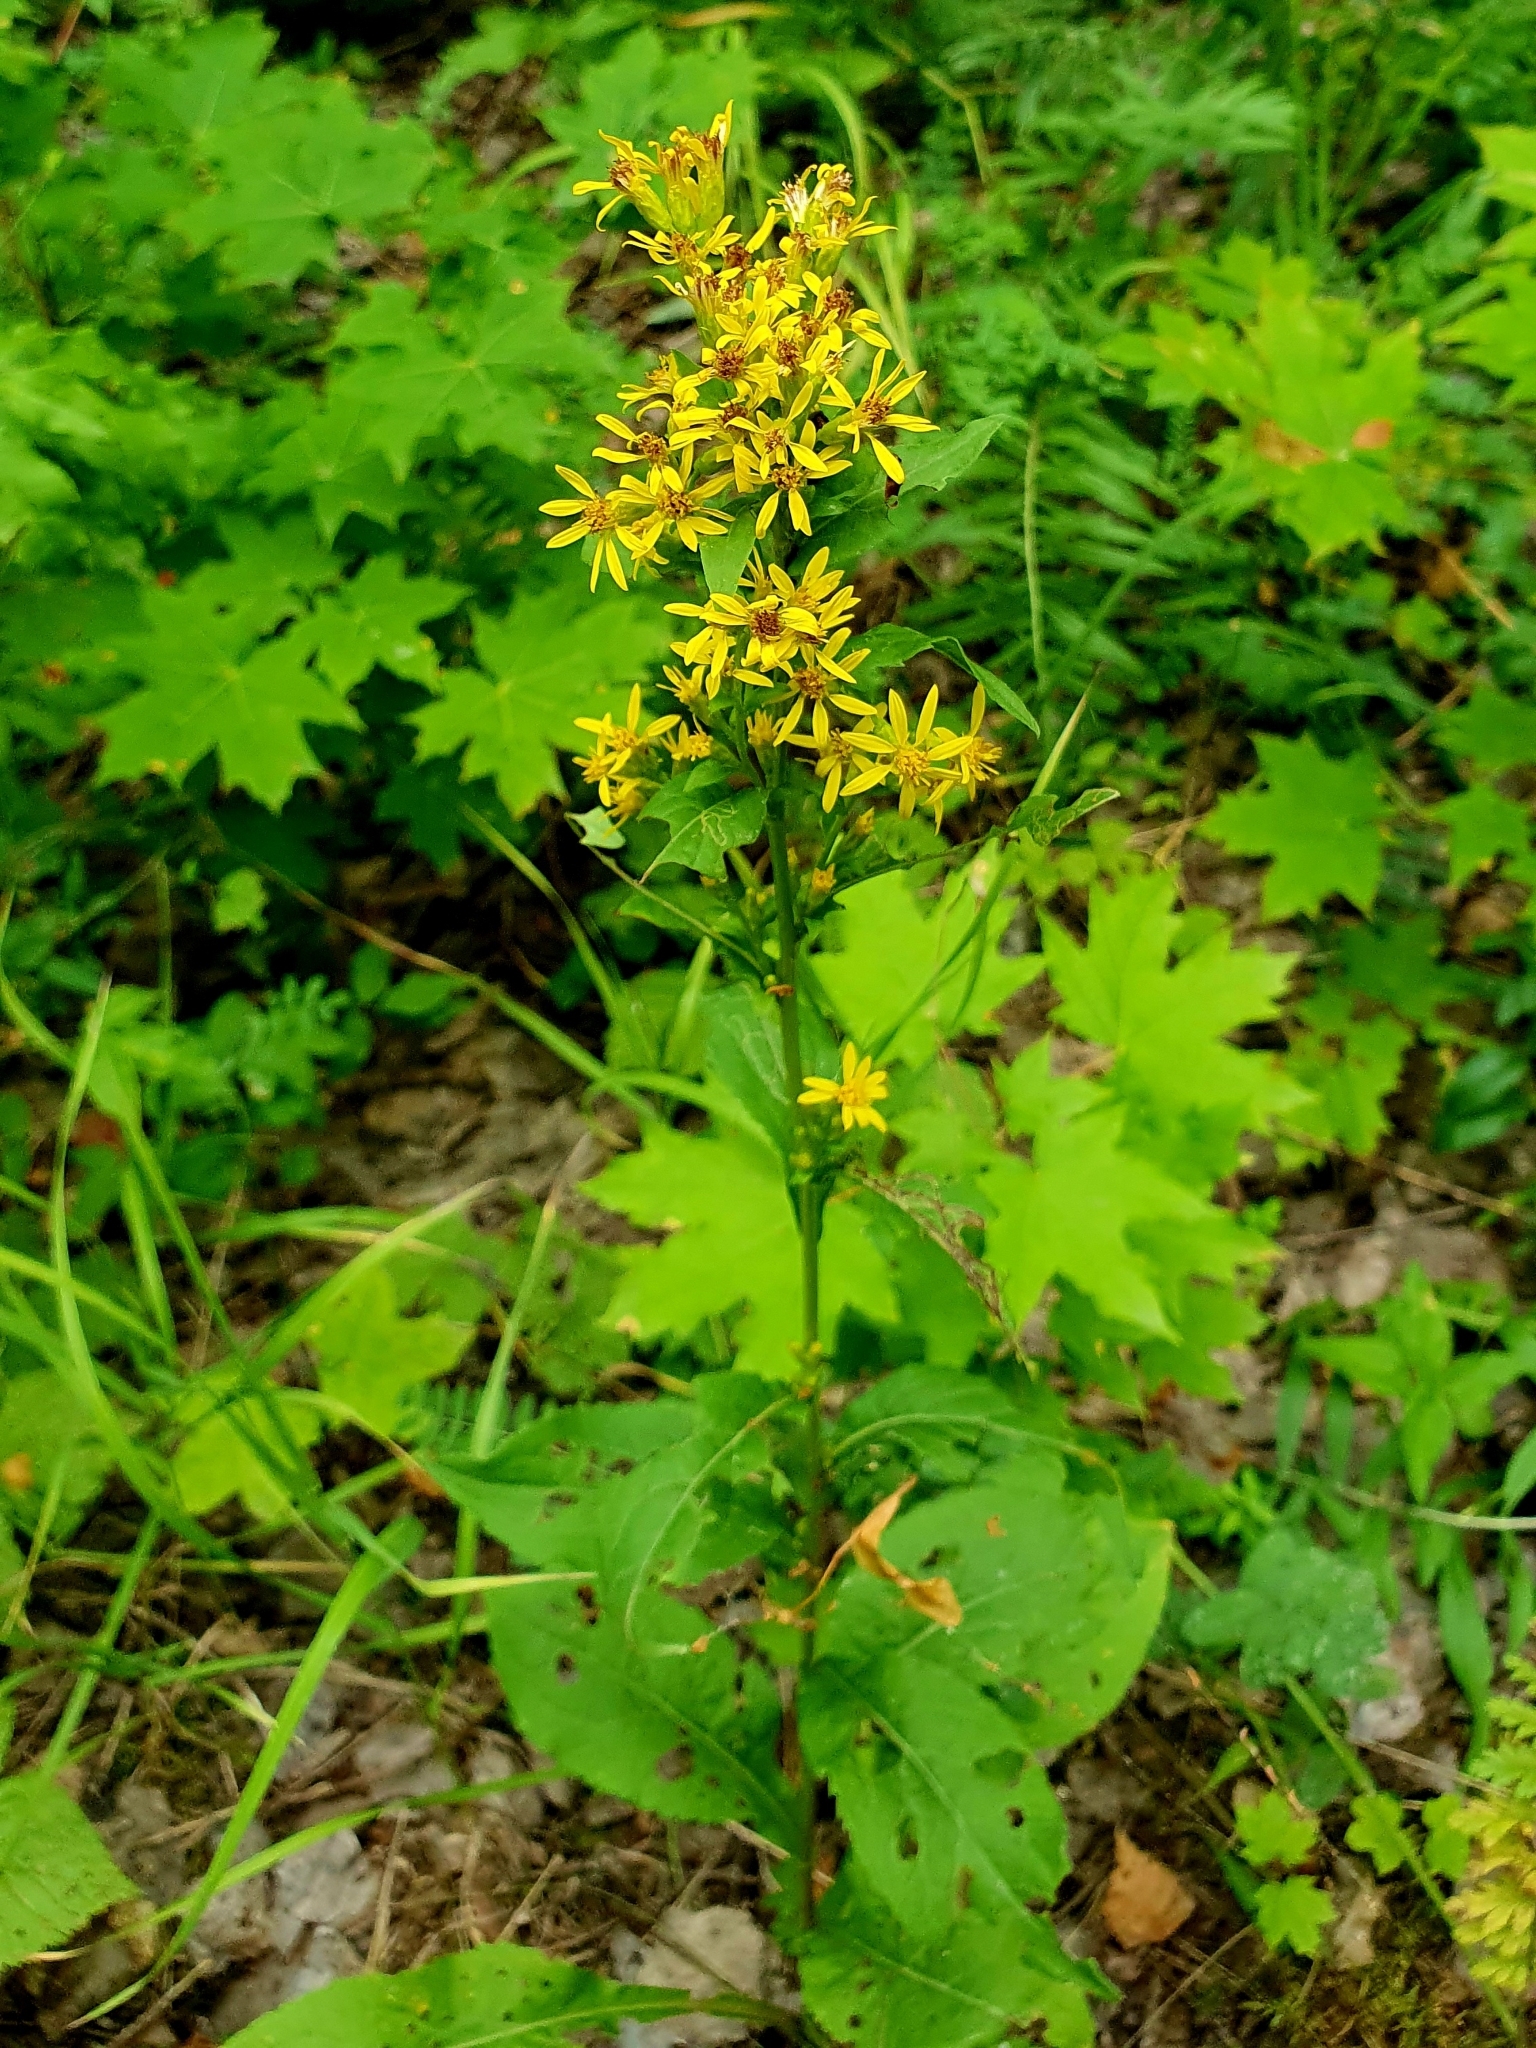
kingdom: Plantae
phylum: Tracheophyta
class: Magnoliopsida
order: Asterales
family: Asteraceae
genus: Solidago
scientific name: Solidago virgaurea
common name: Goldenrod
